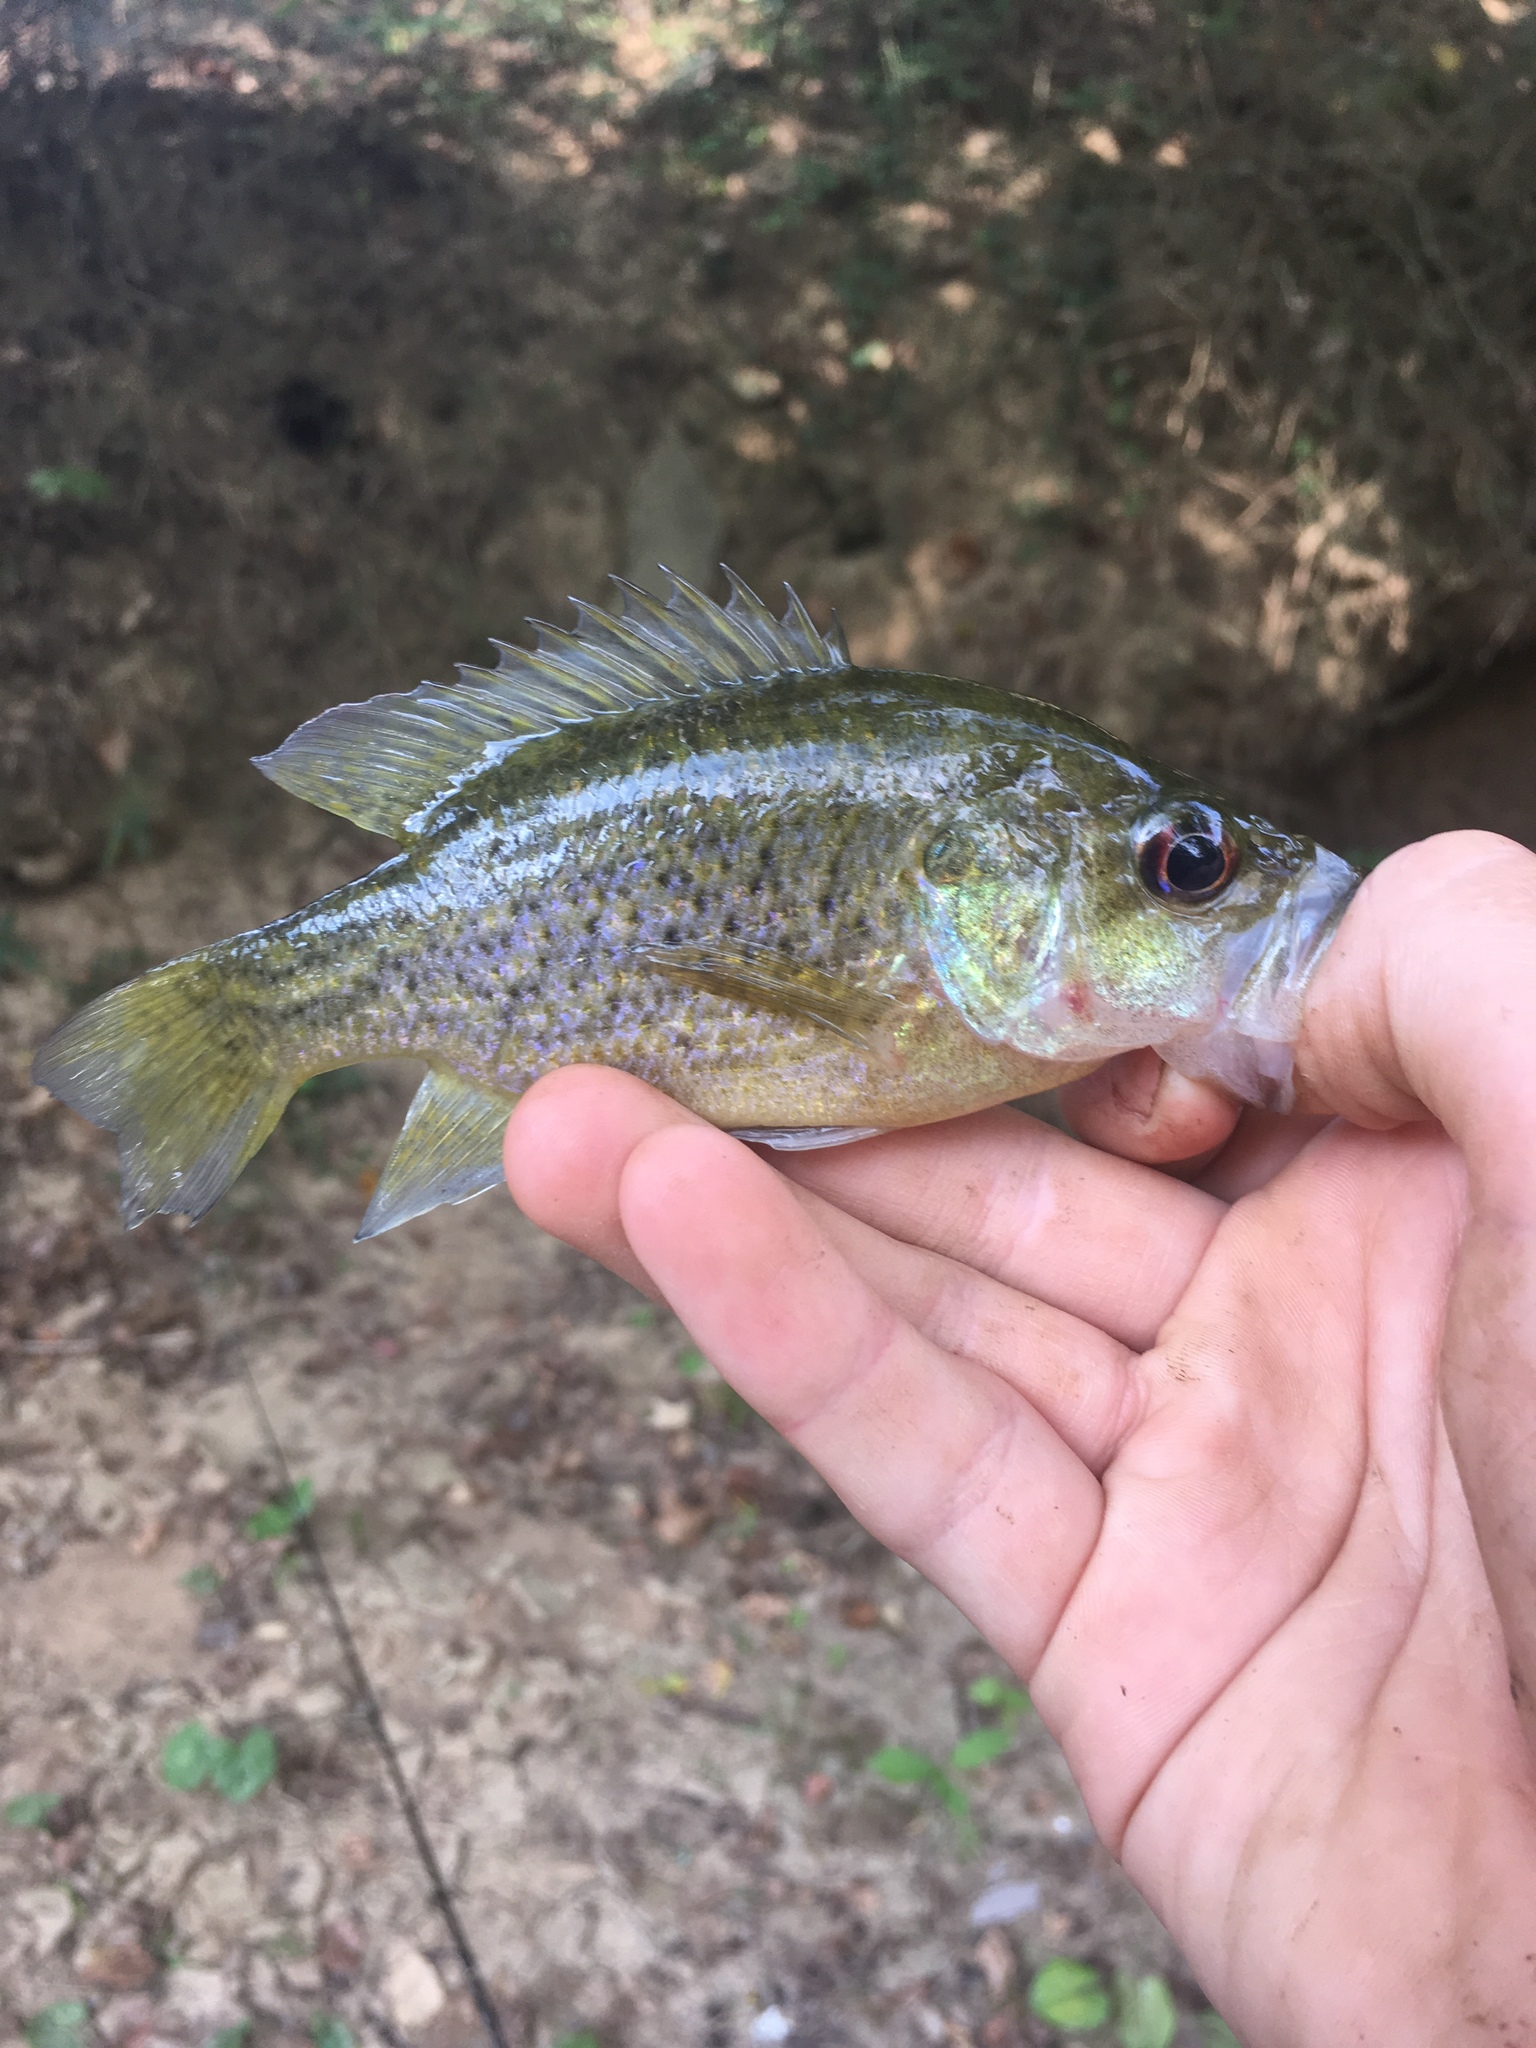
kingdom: Animalia
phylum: Chordata
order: Perciformes
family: Centrarchidae
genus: Lepomis
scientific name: Lepomis gulosus
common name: Warmouth
